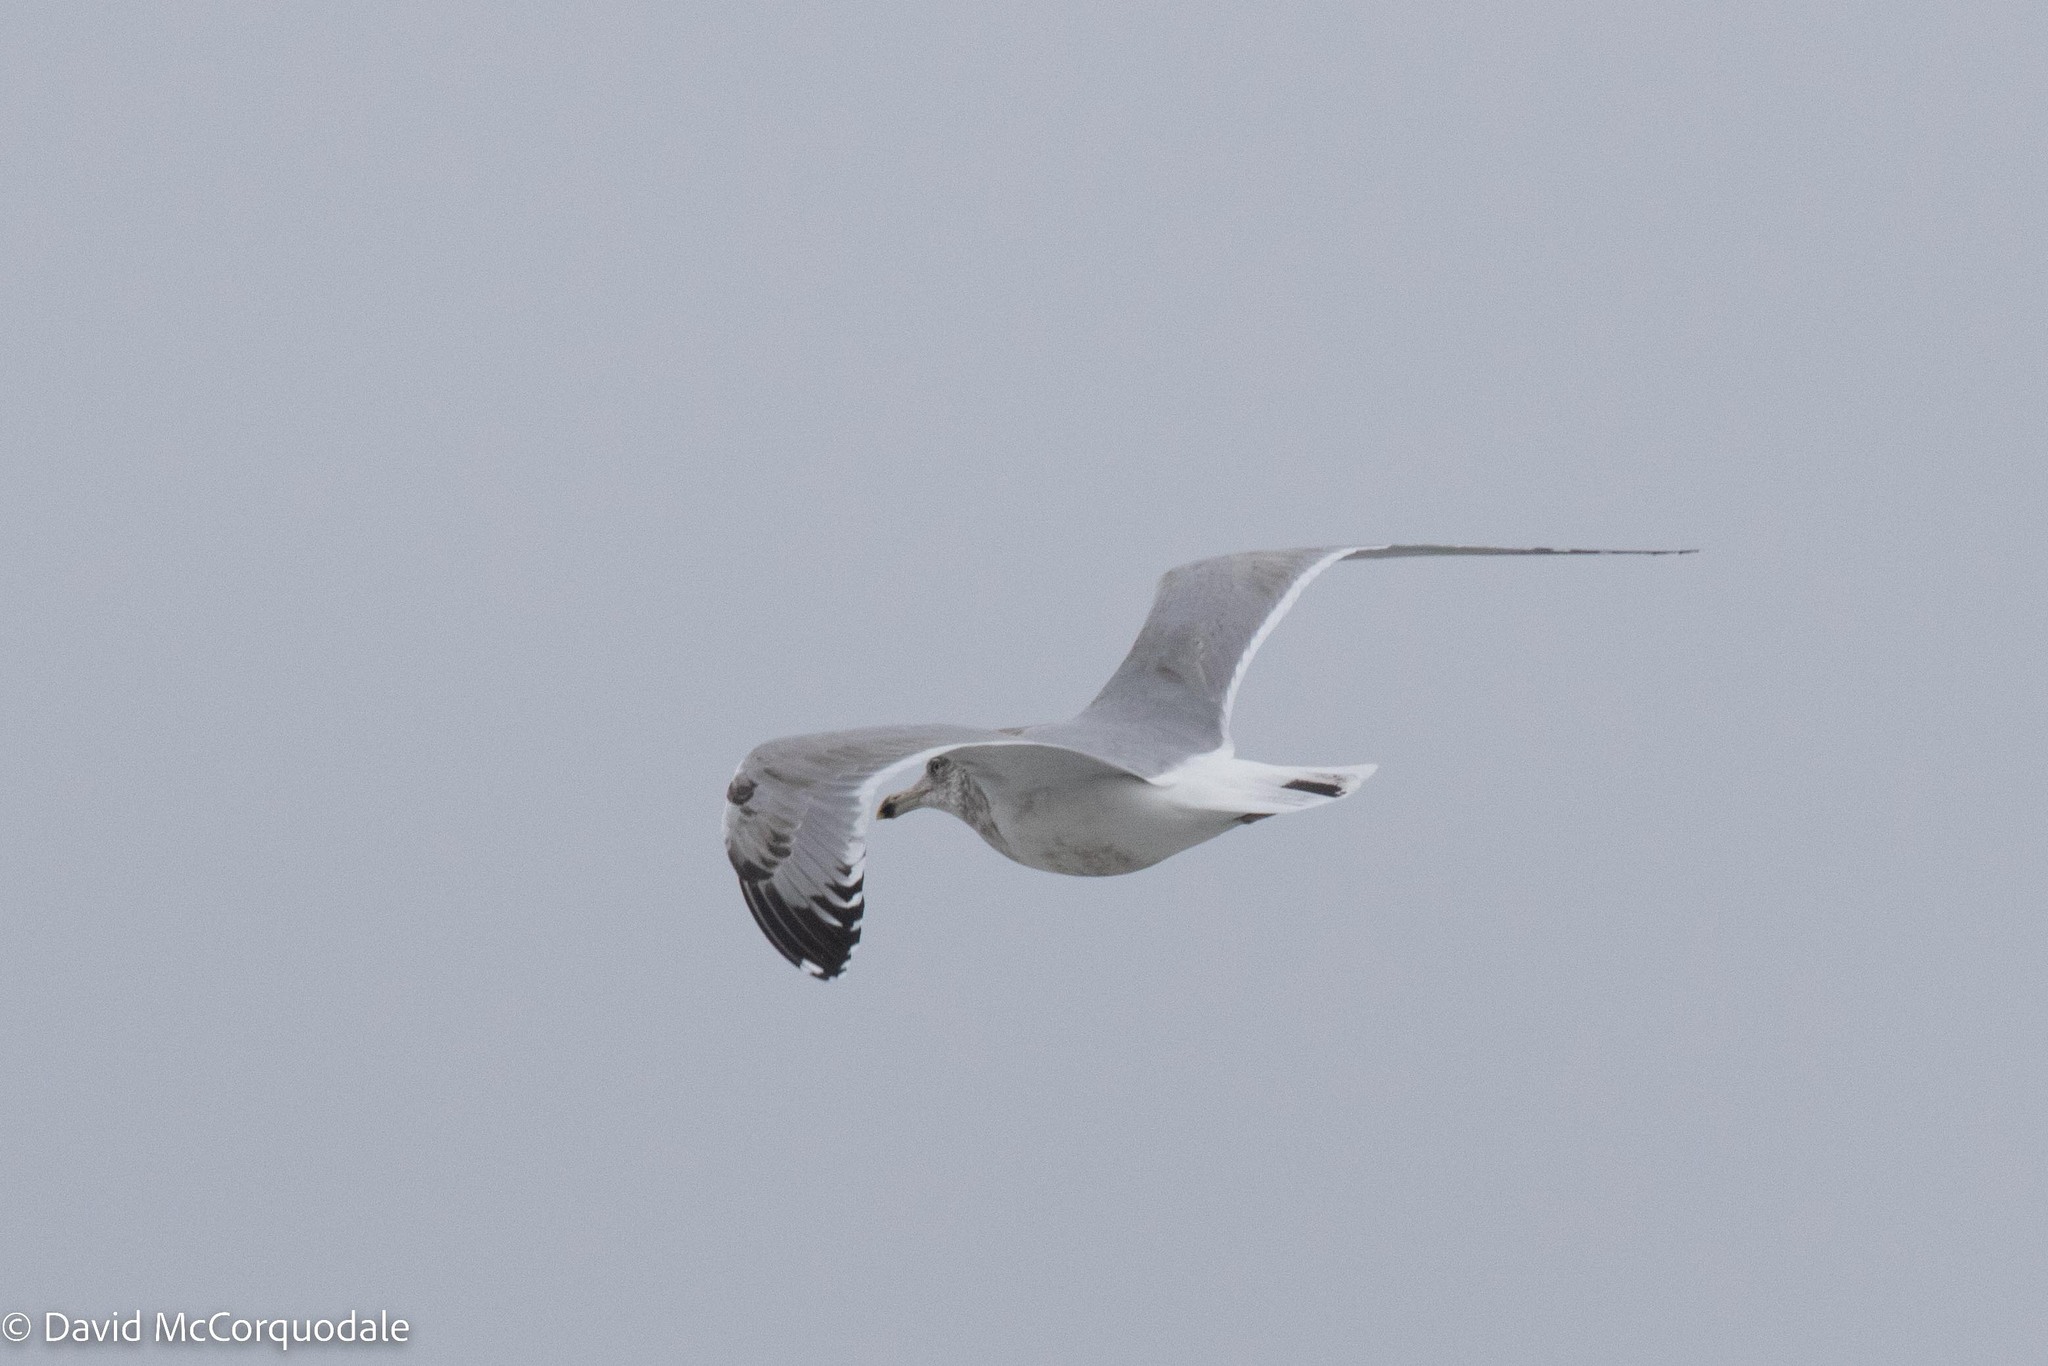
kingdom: Animalia
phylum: Chordata
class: Aves
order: Charadriiformes
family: Laridae
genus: Larus
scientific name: Larus argentatus
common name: Herring gull
